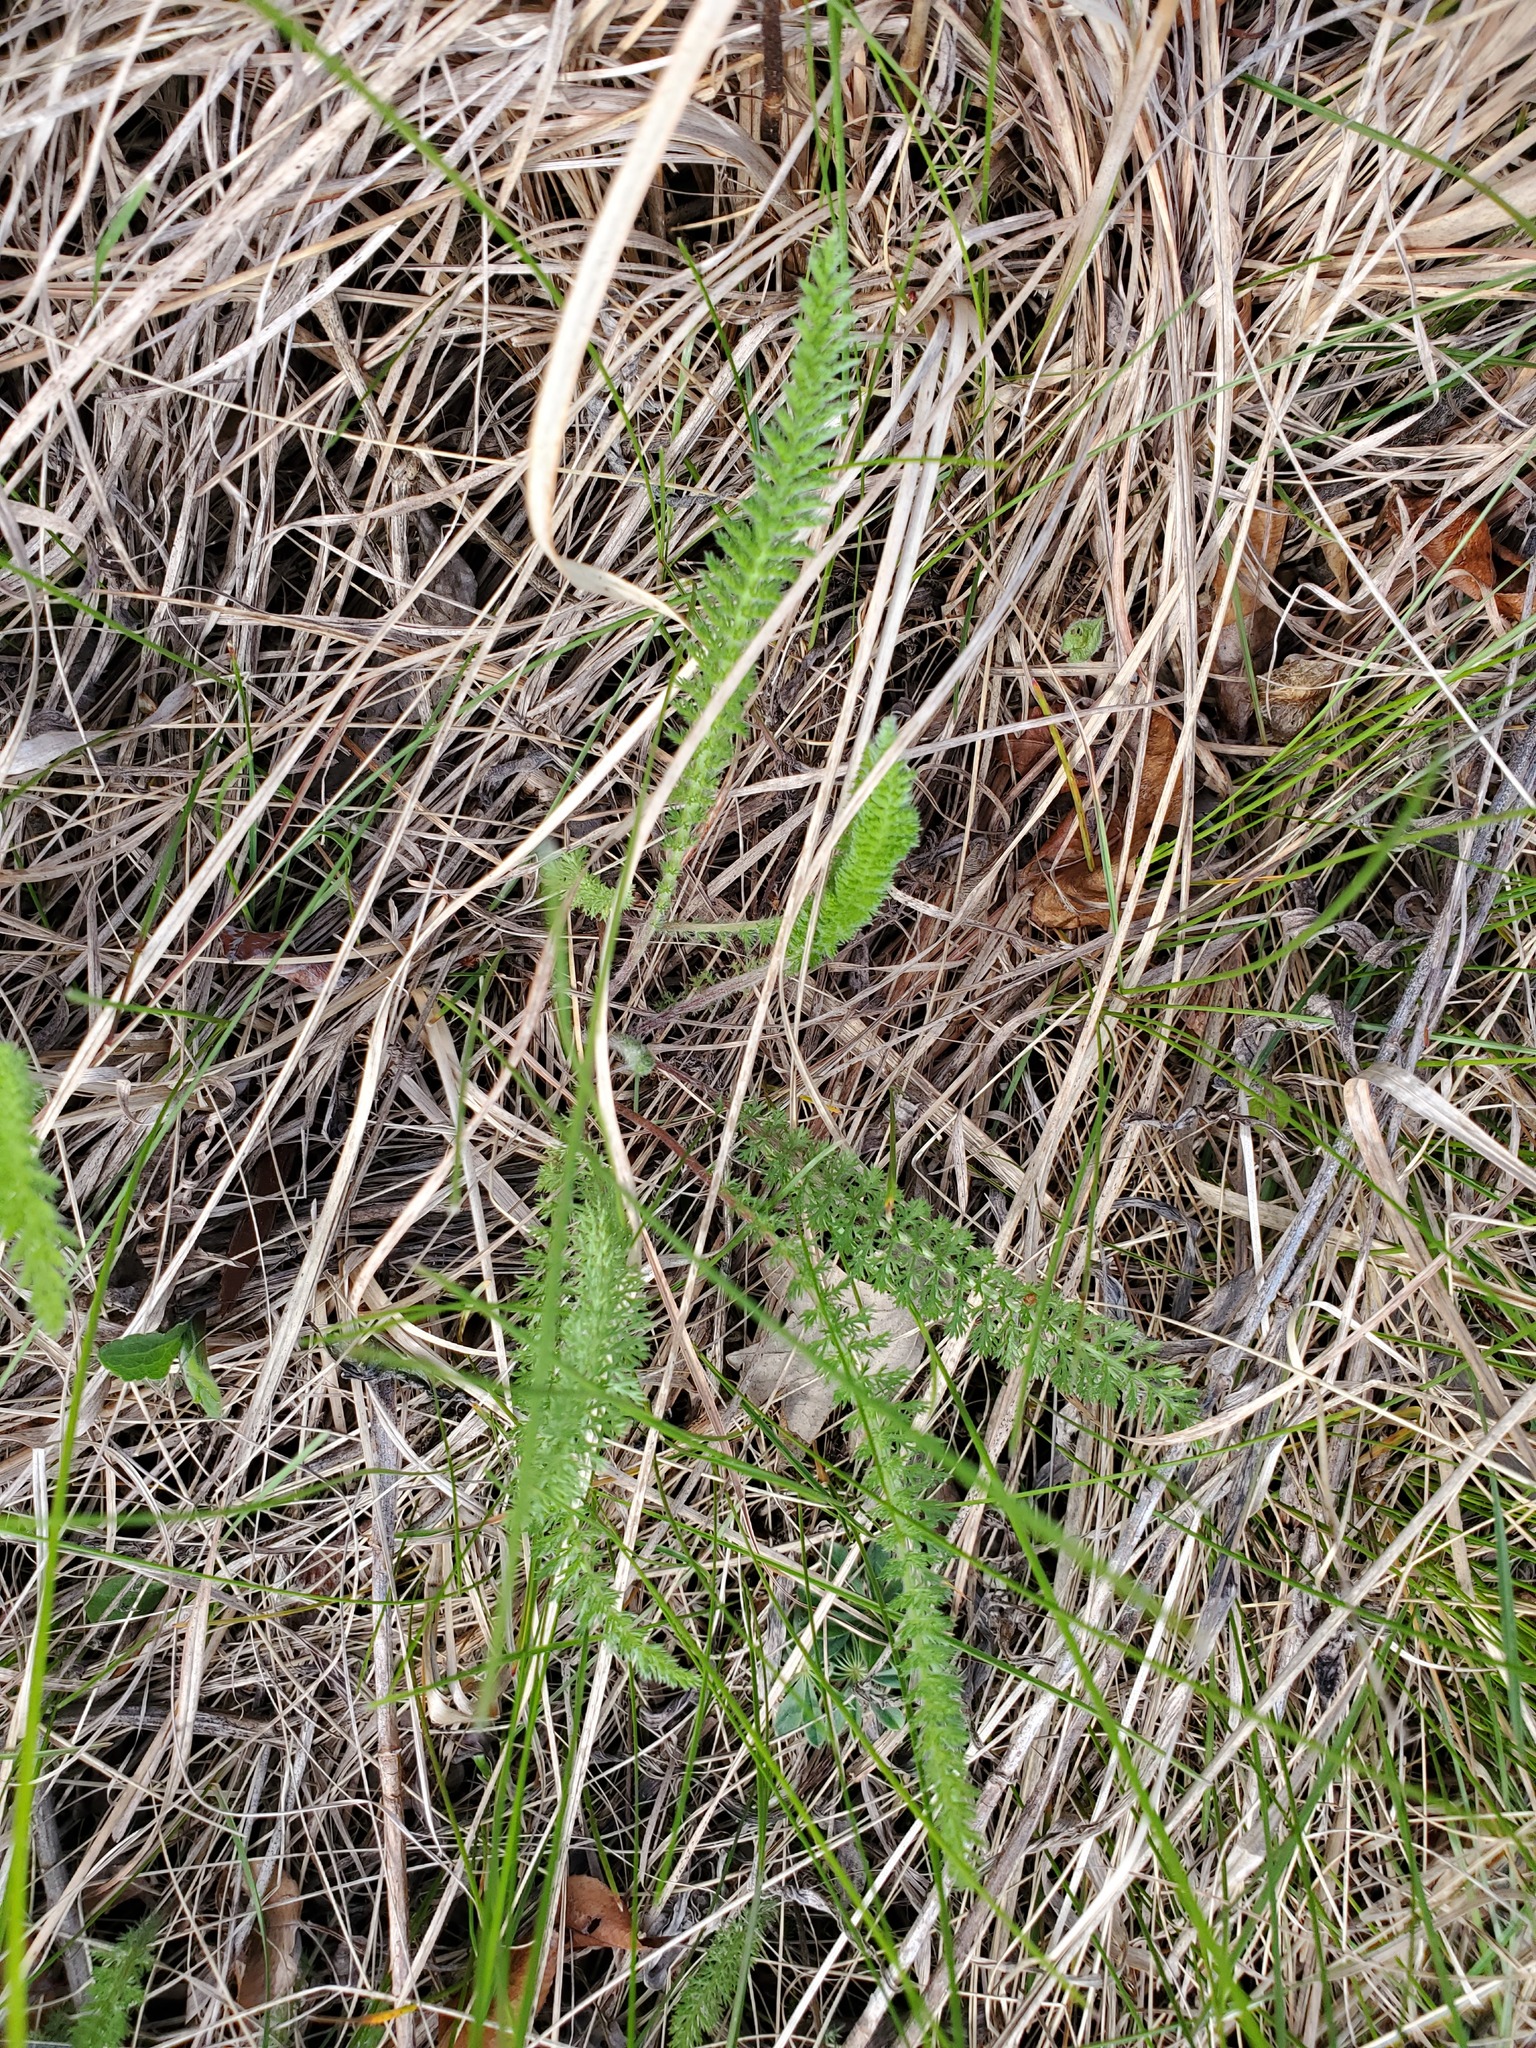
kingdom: Plantae
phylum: Tracheophyta
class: Magnoliopsida
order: Asterales
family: Asteraceae
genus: Achillea
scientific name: Achillea millefolium
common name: Yarrow
